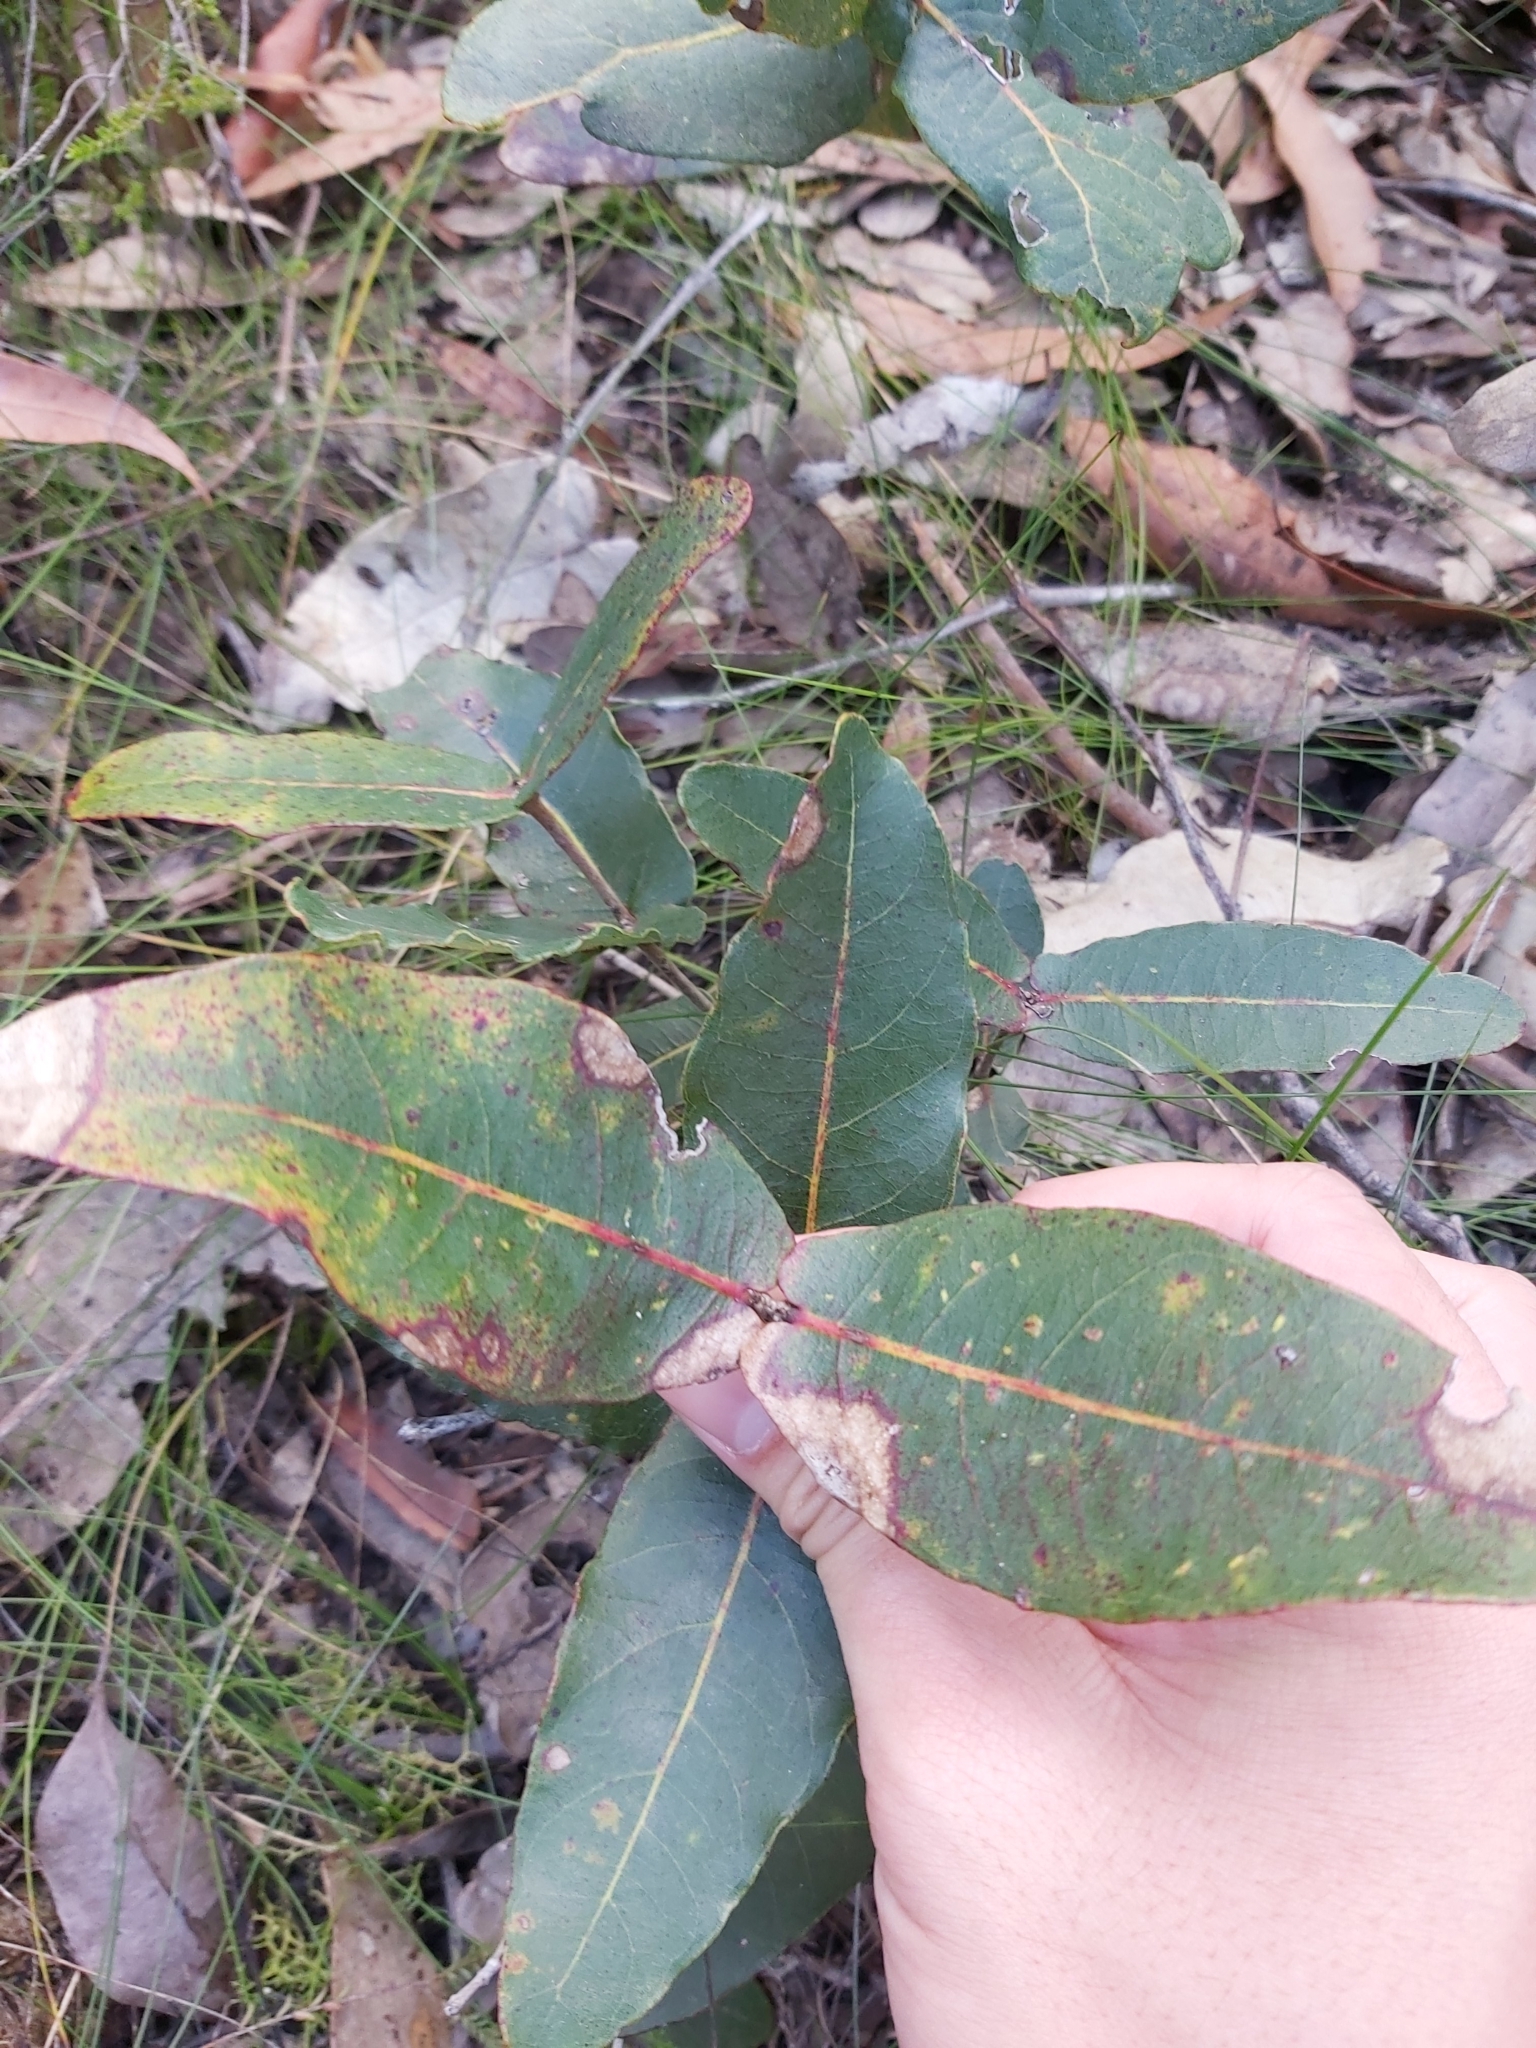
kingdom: Plantae
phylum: Tracheophyta
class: Magnoliopsida
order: Myrtales
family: Myrtaceae
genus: Angophora
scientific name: Angophora hispida
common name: Dwarf-apple
